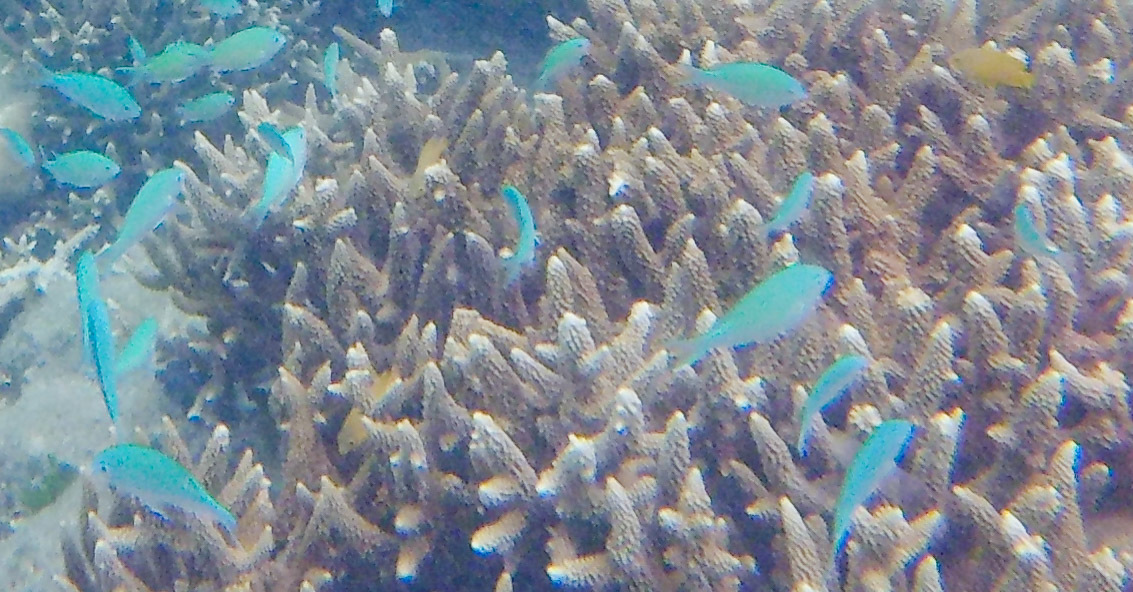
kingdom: Animalia
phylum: Chordata
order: Perciformes
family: Pomacentridae
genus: Chromis
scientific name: Chromis viridis
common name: Blue-green chromis
